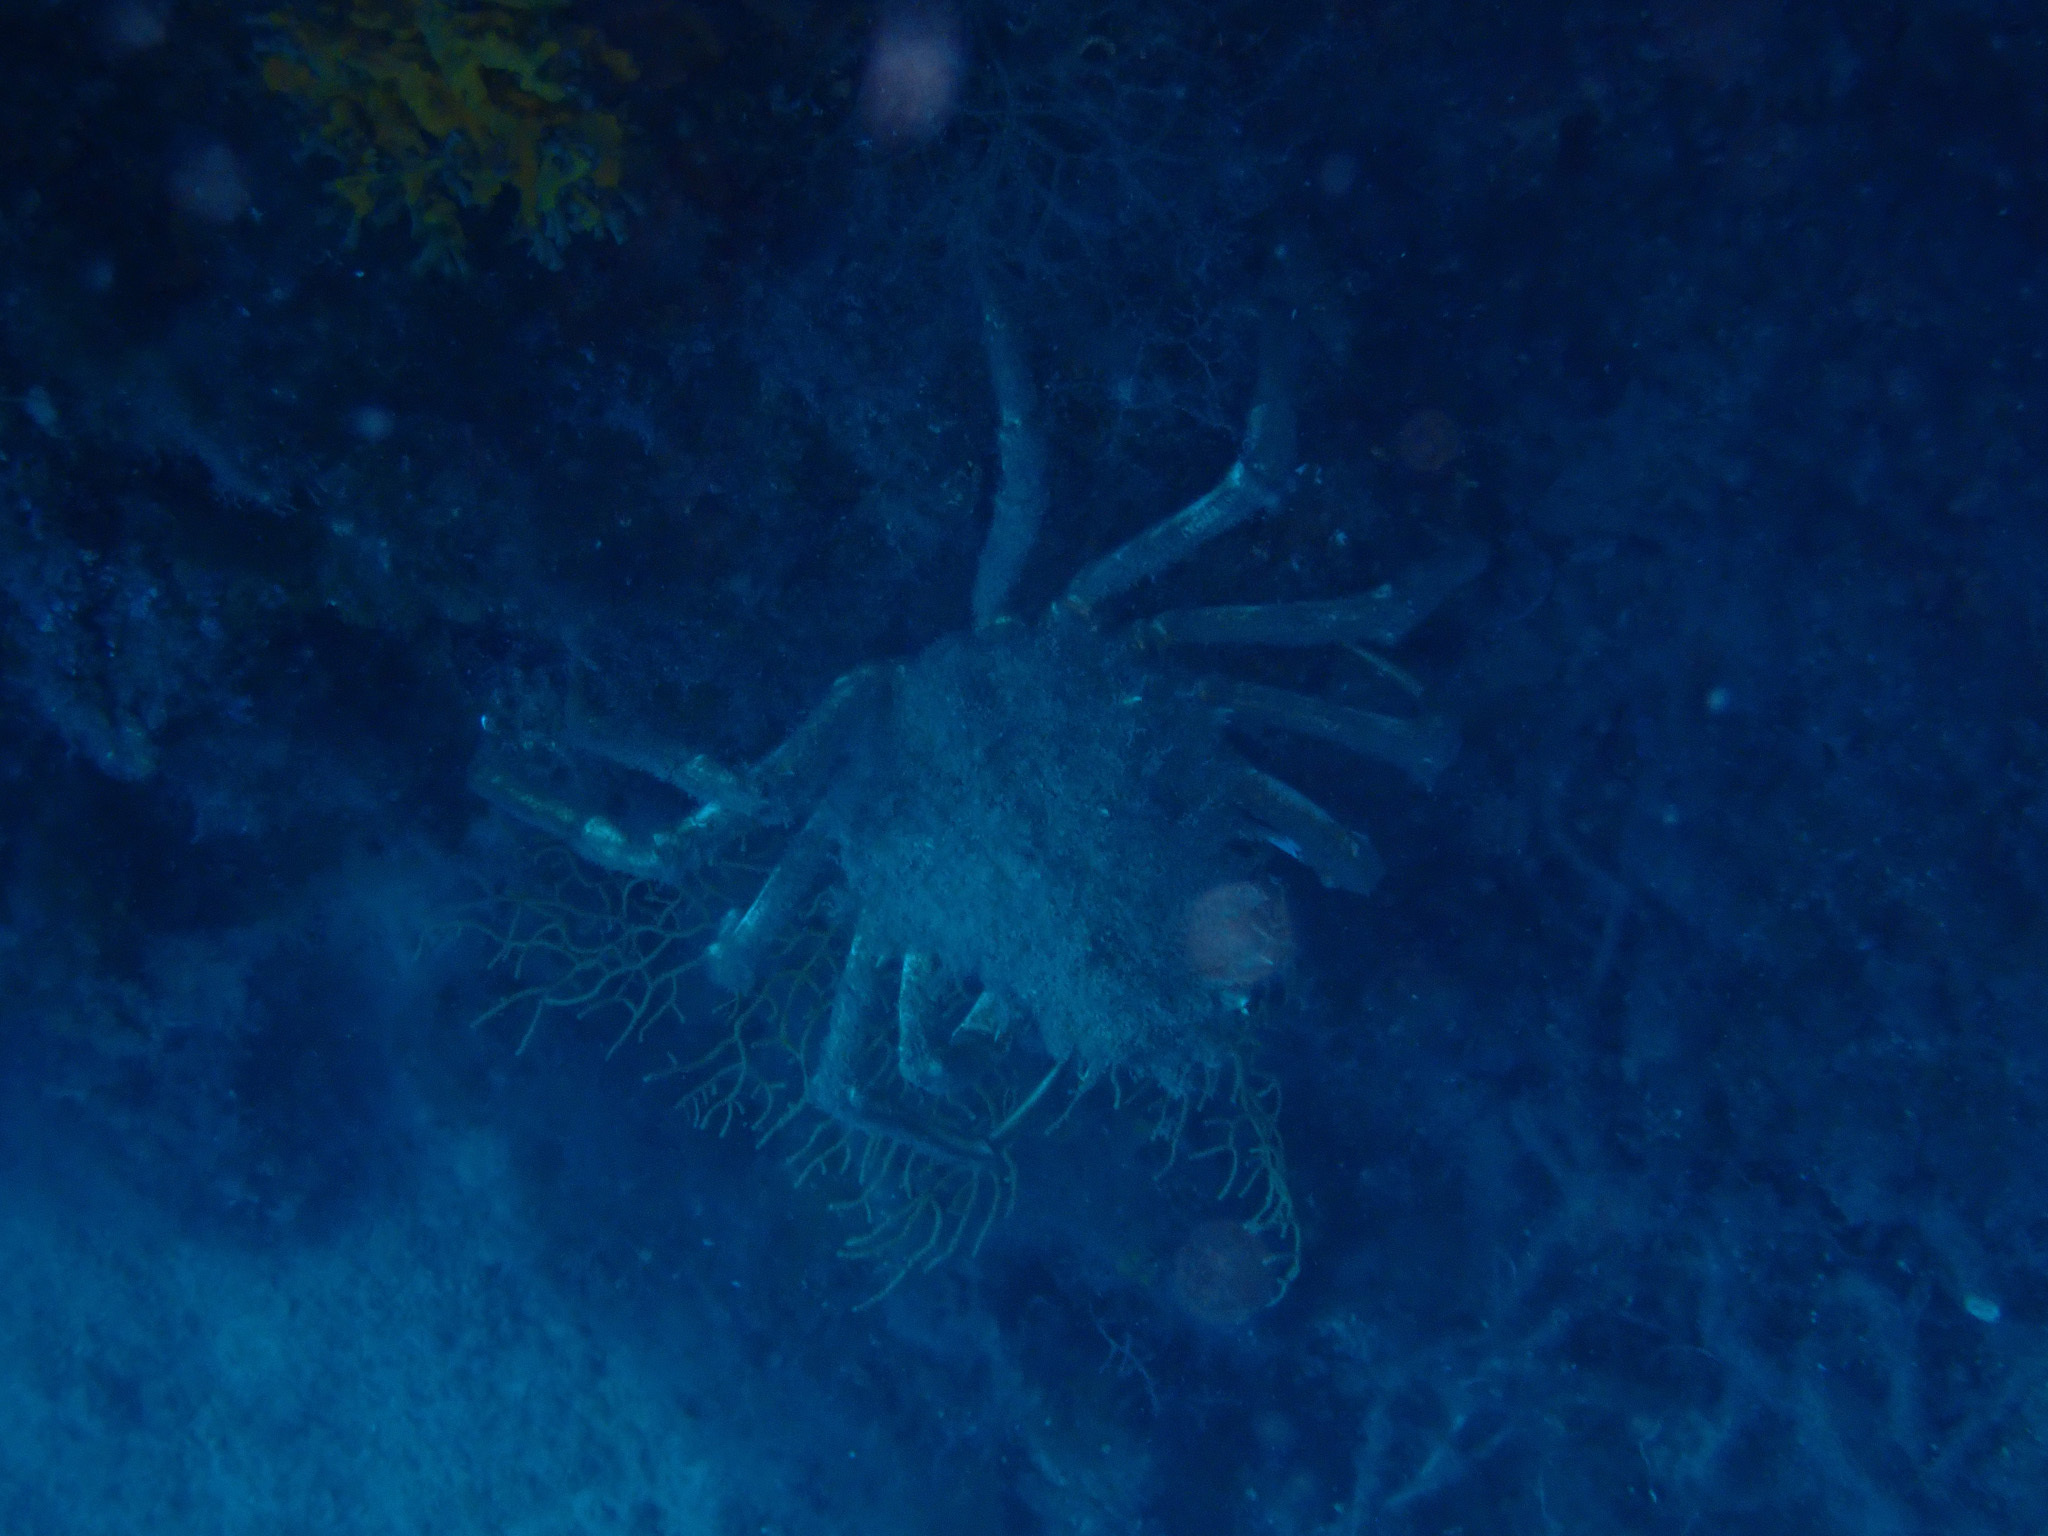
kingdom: Animalia
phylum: Arthropoda
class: Malacostraca
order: Decapoda
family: Majidae
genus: Maja
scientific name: Maja squinado
